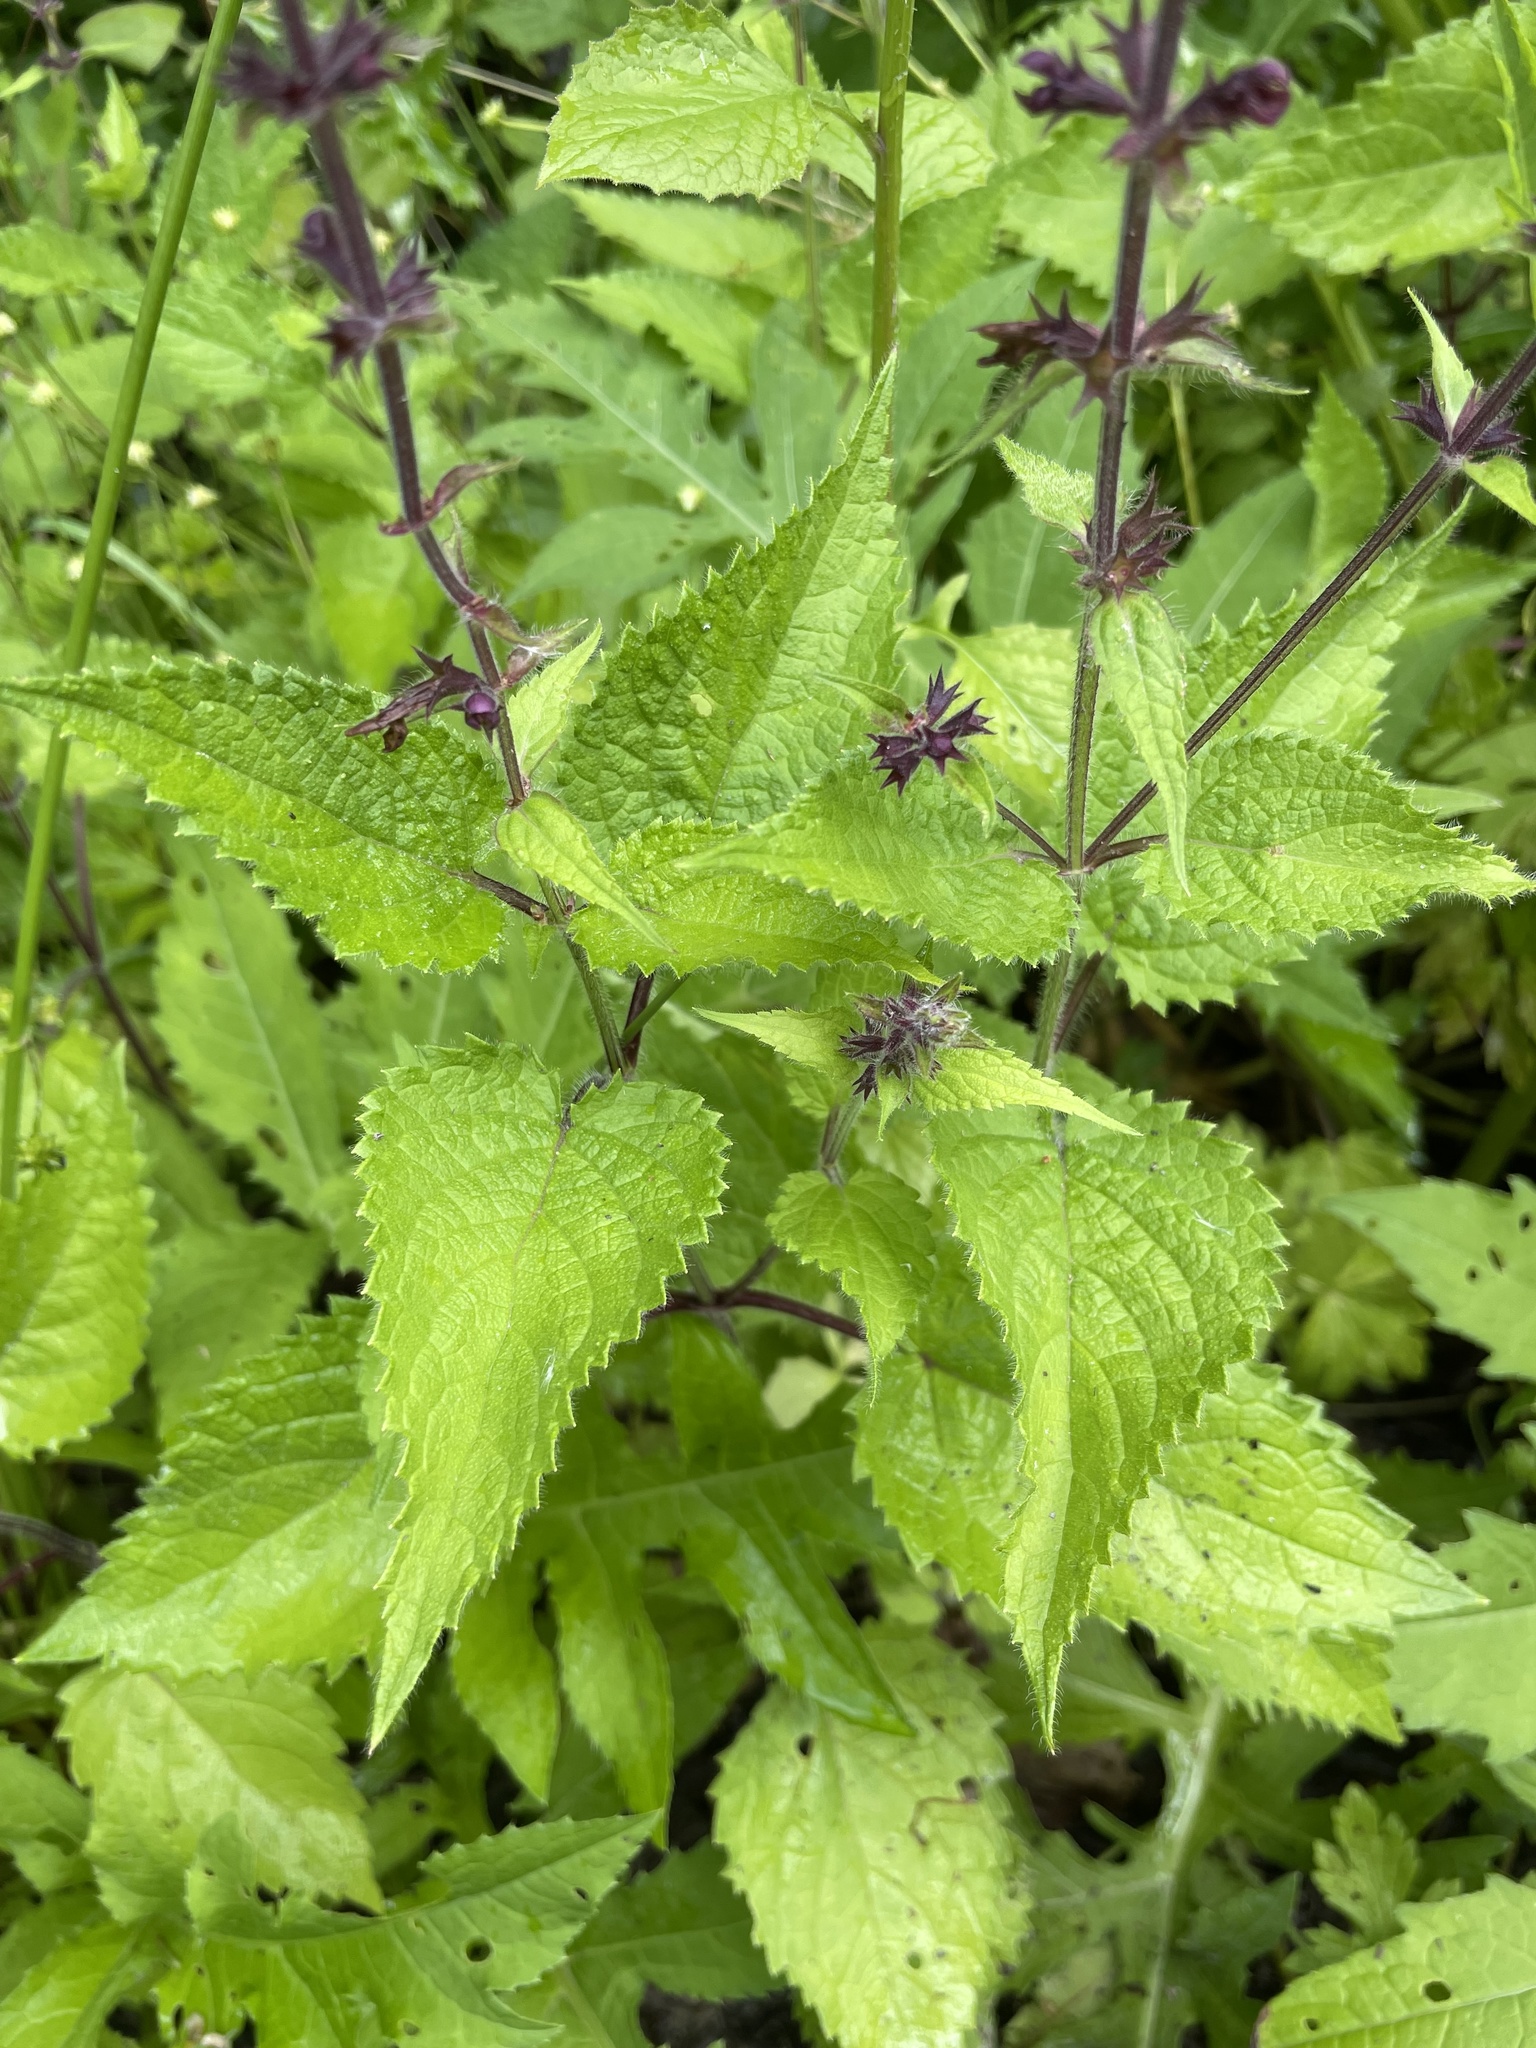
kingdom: Plantae
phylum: Tracheophyta
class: Magnoliopsida
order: Lamiales
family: Lamiaceae
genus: Stachys
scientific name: Stachys sylvatica
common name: Hedge woundwort
